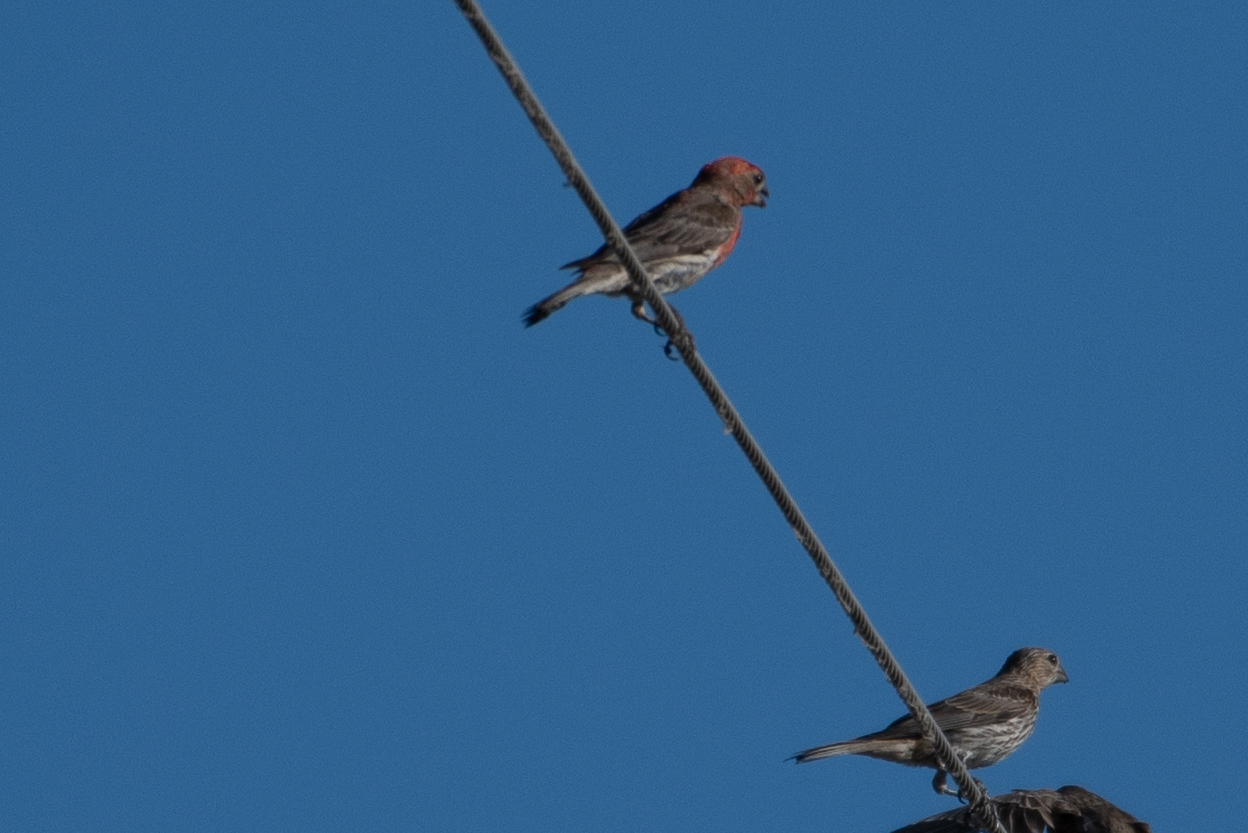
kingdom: Animalia
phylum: Chordata
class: Aves
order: Passeriformes
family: Fringillidae
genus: Haemorhous
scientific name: Haemorhous mexicanus
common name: House finch
